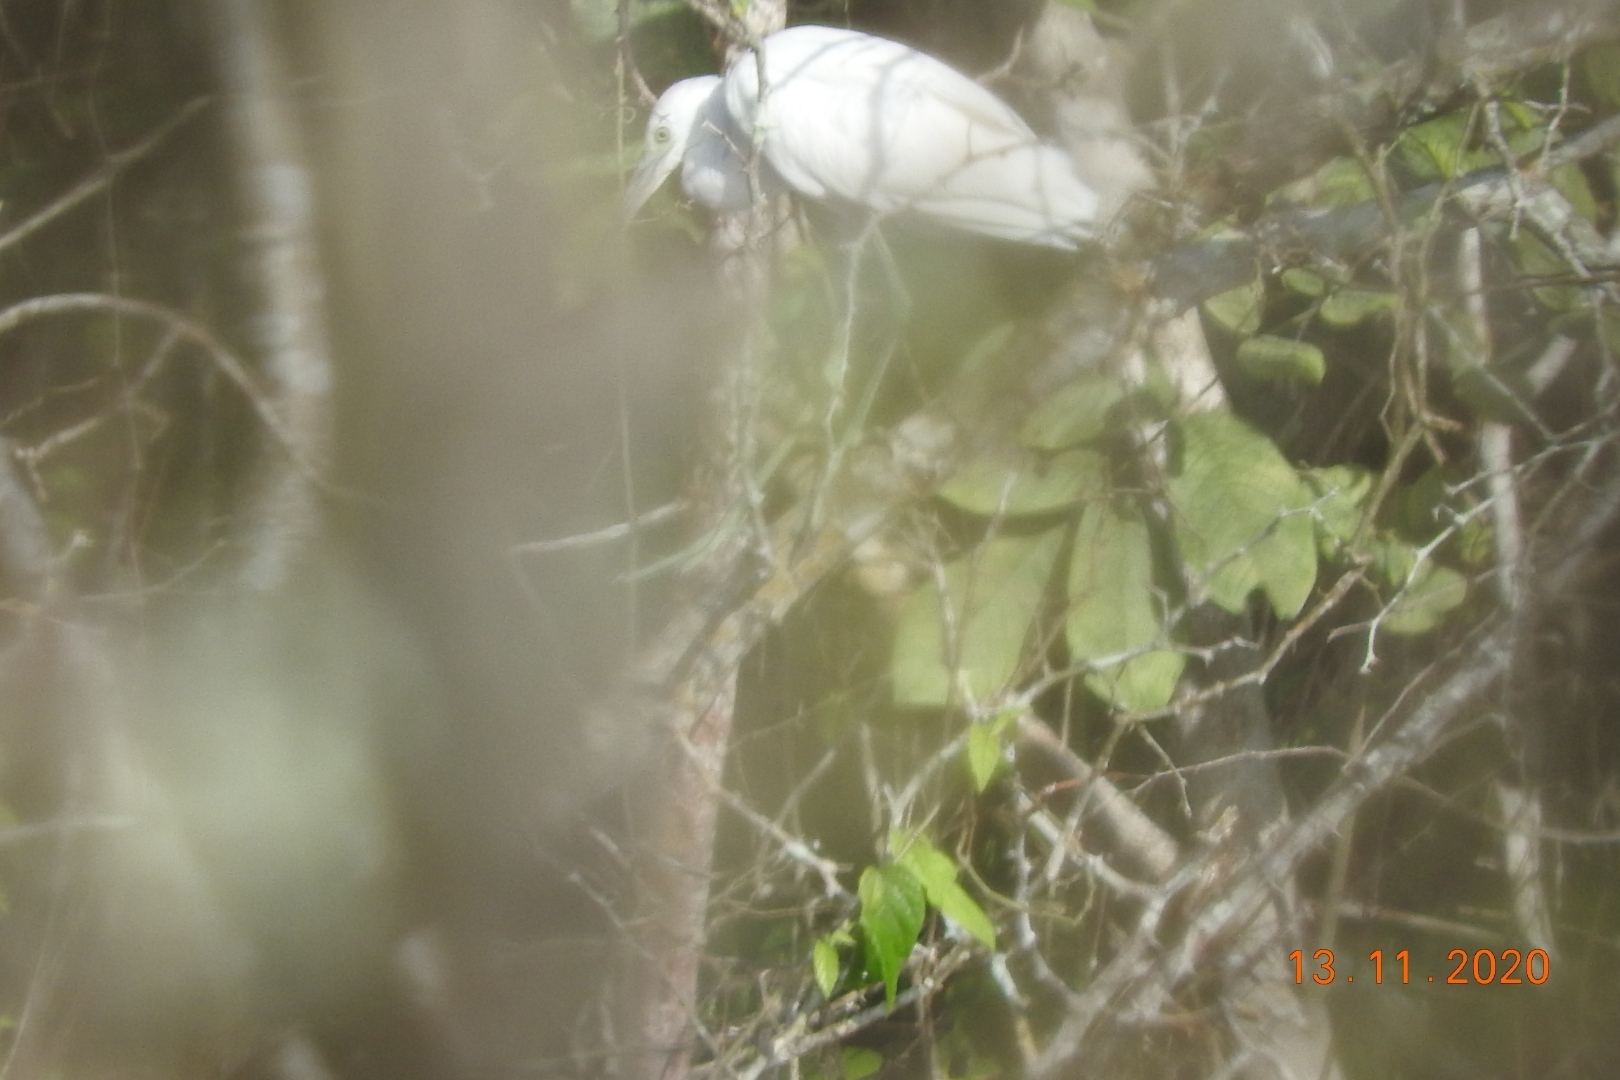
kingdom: Animalia
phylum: Chordata
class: Aves
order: Pelecaniformes
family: Ardeidae
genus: Egretta
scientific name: Egretta caerulea
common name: Little blue heron
